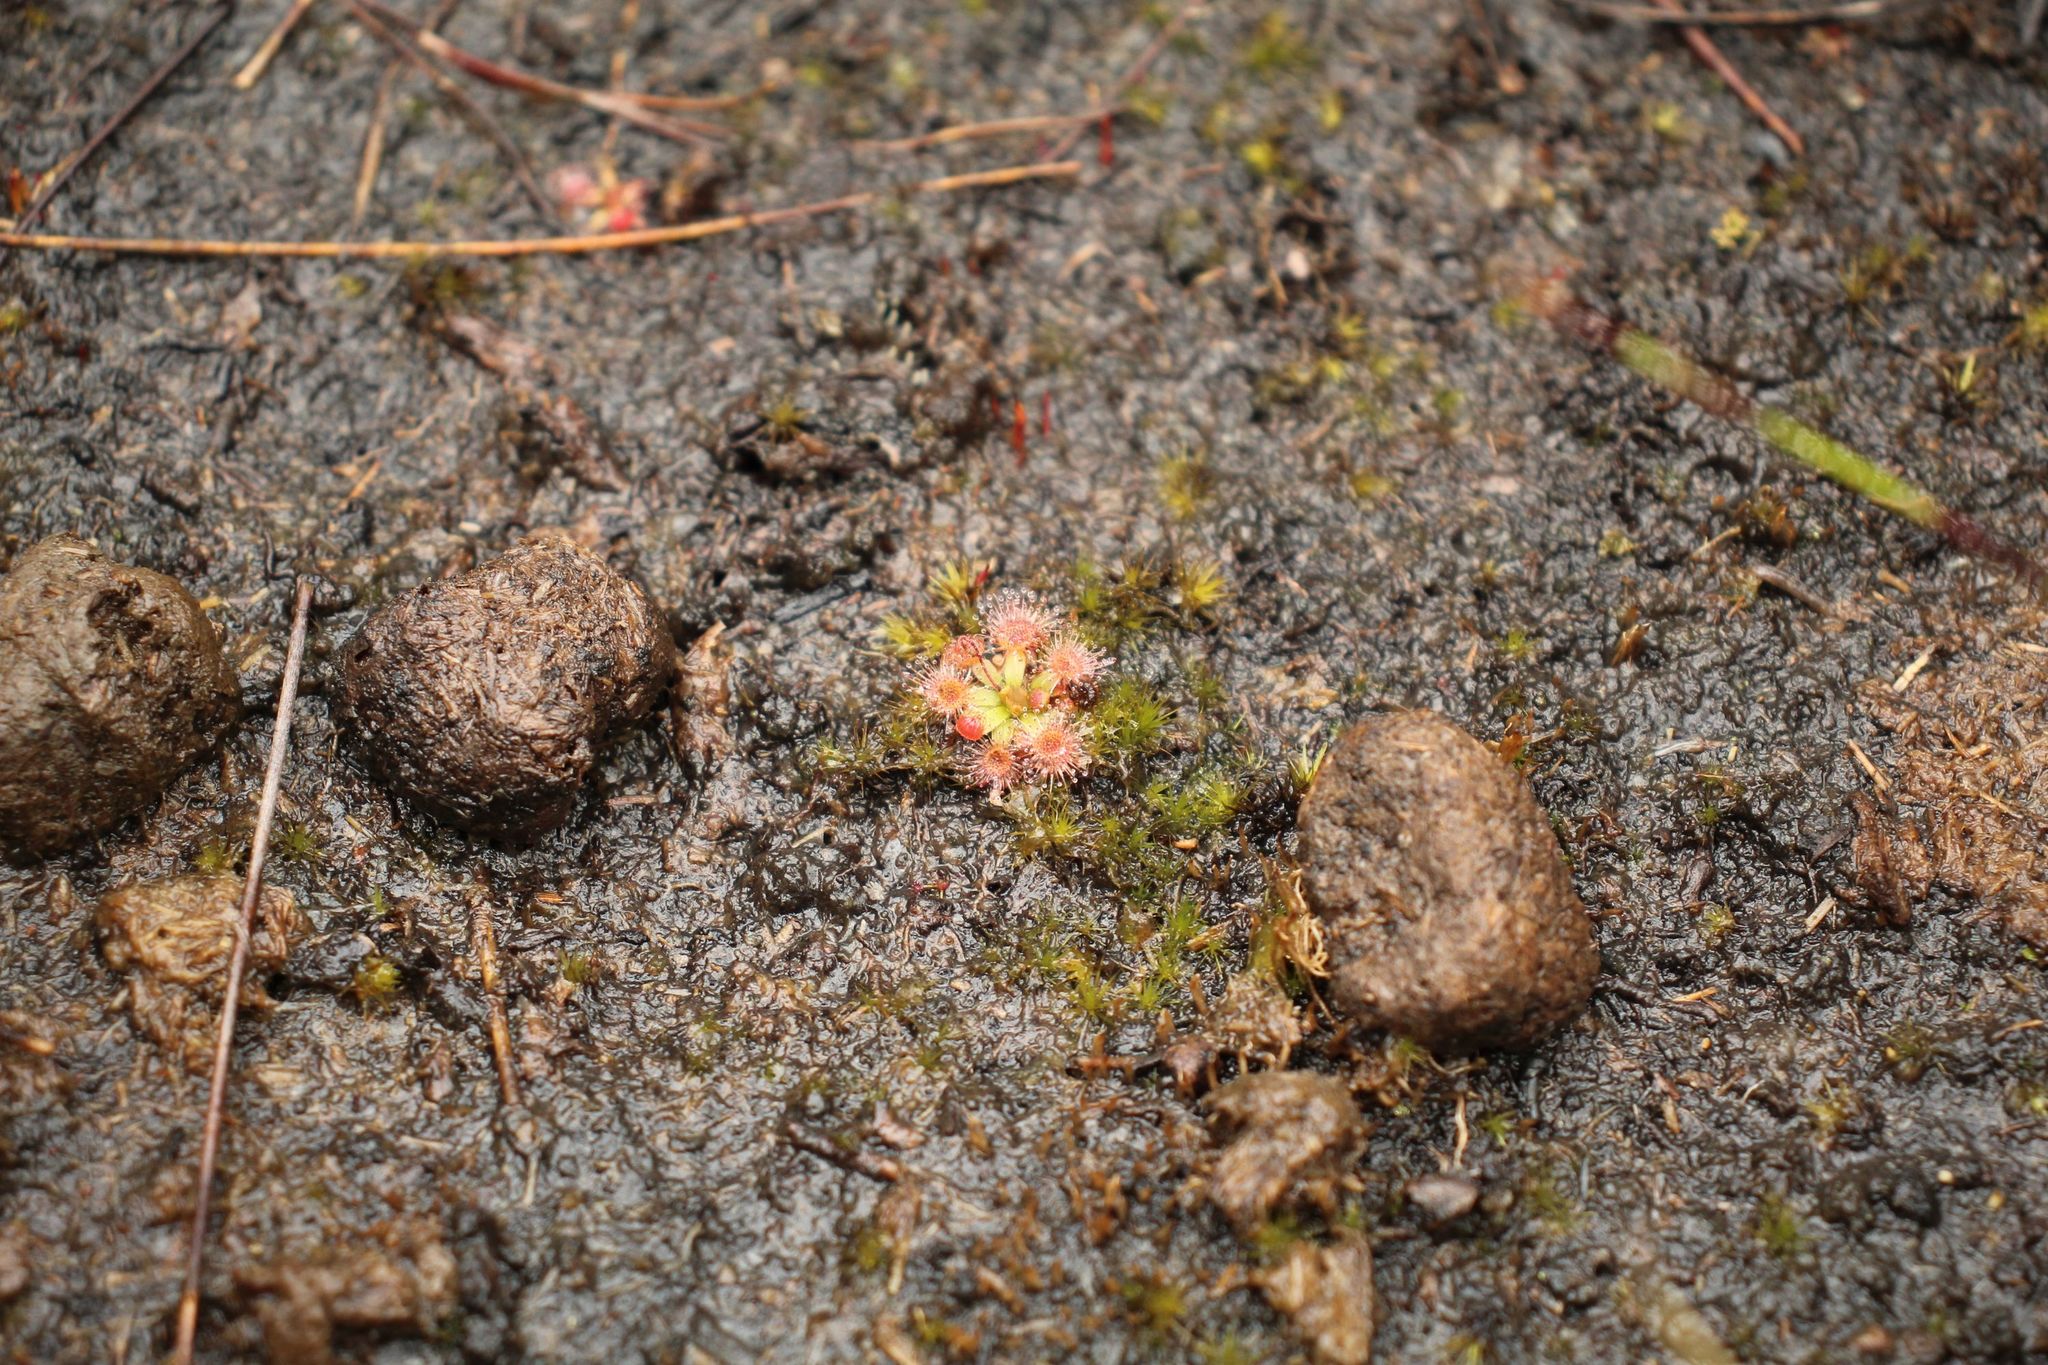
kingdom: Plantae
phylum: Tracheophyta
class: Magnoliopsida
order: Caryophyllales
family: Droseraceae
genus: Drosera
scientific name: Drosera pulchella
